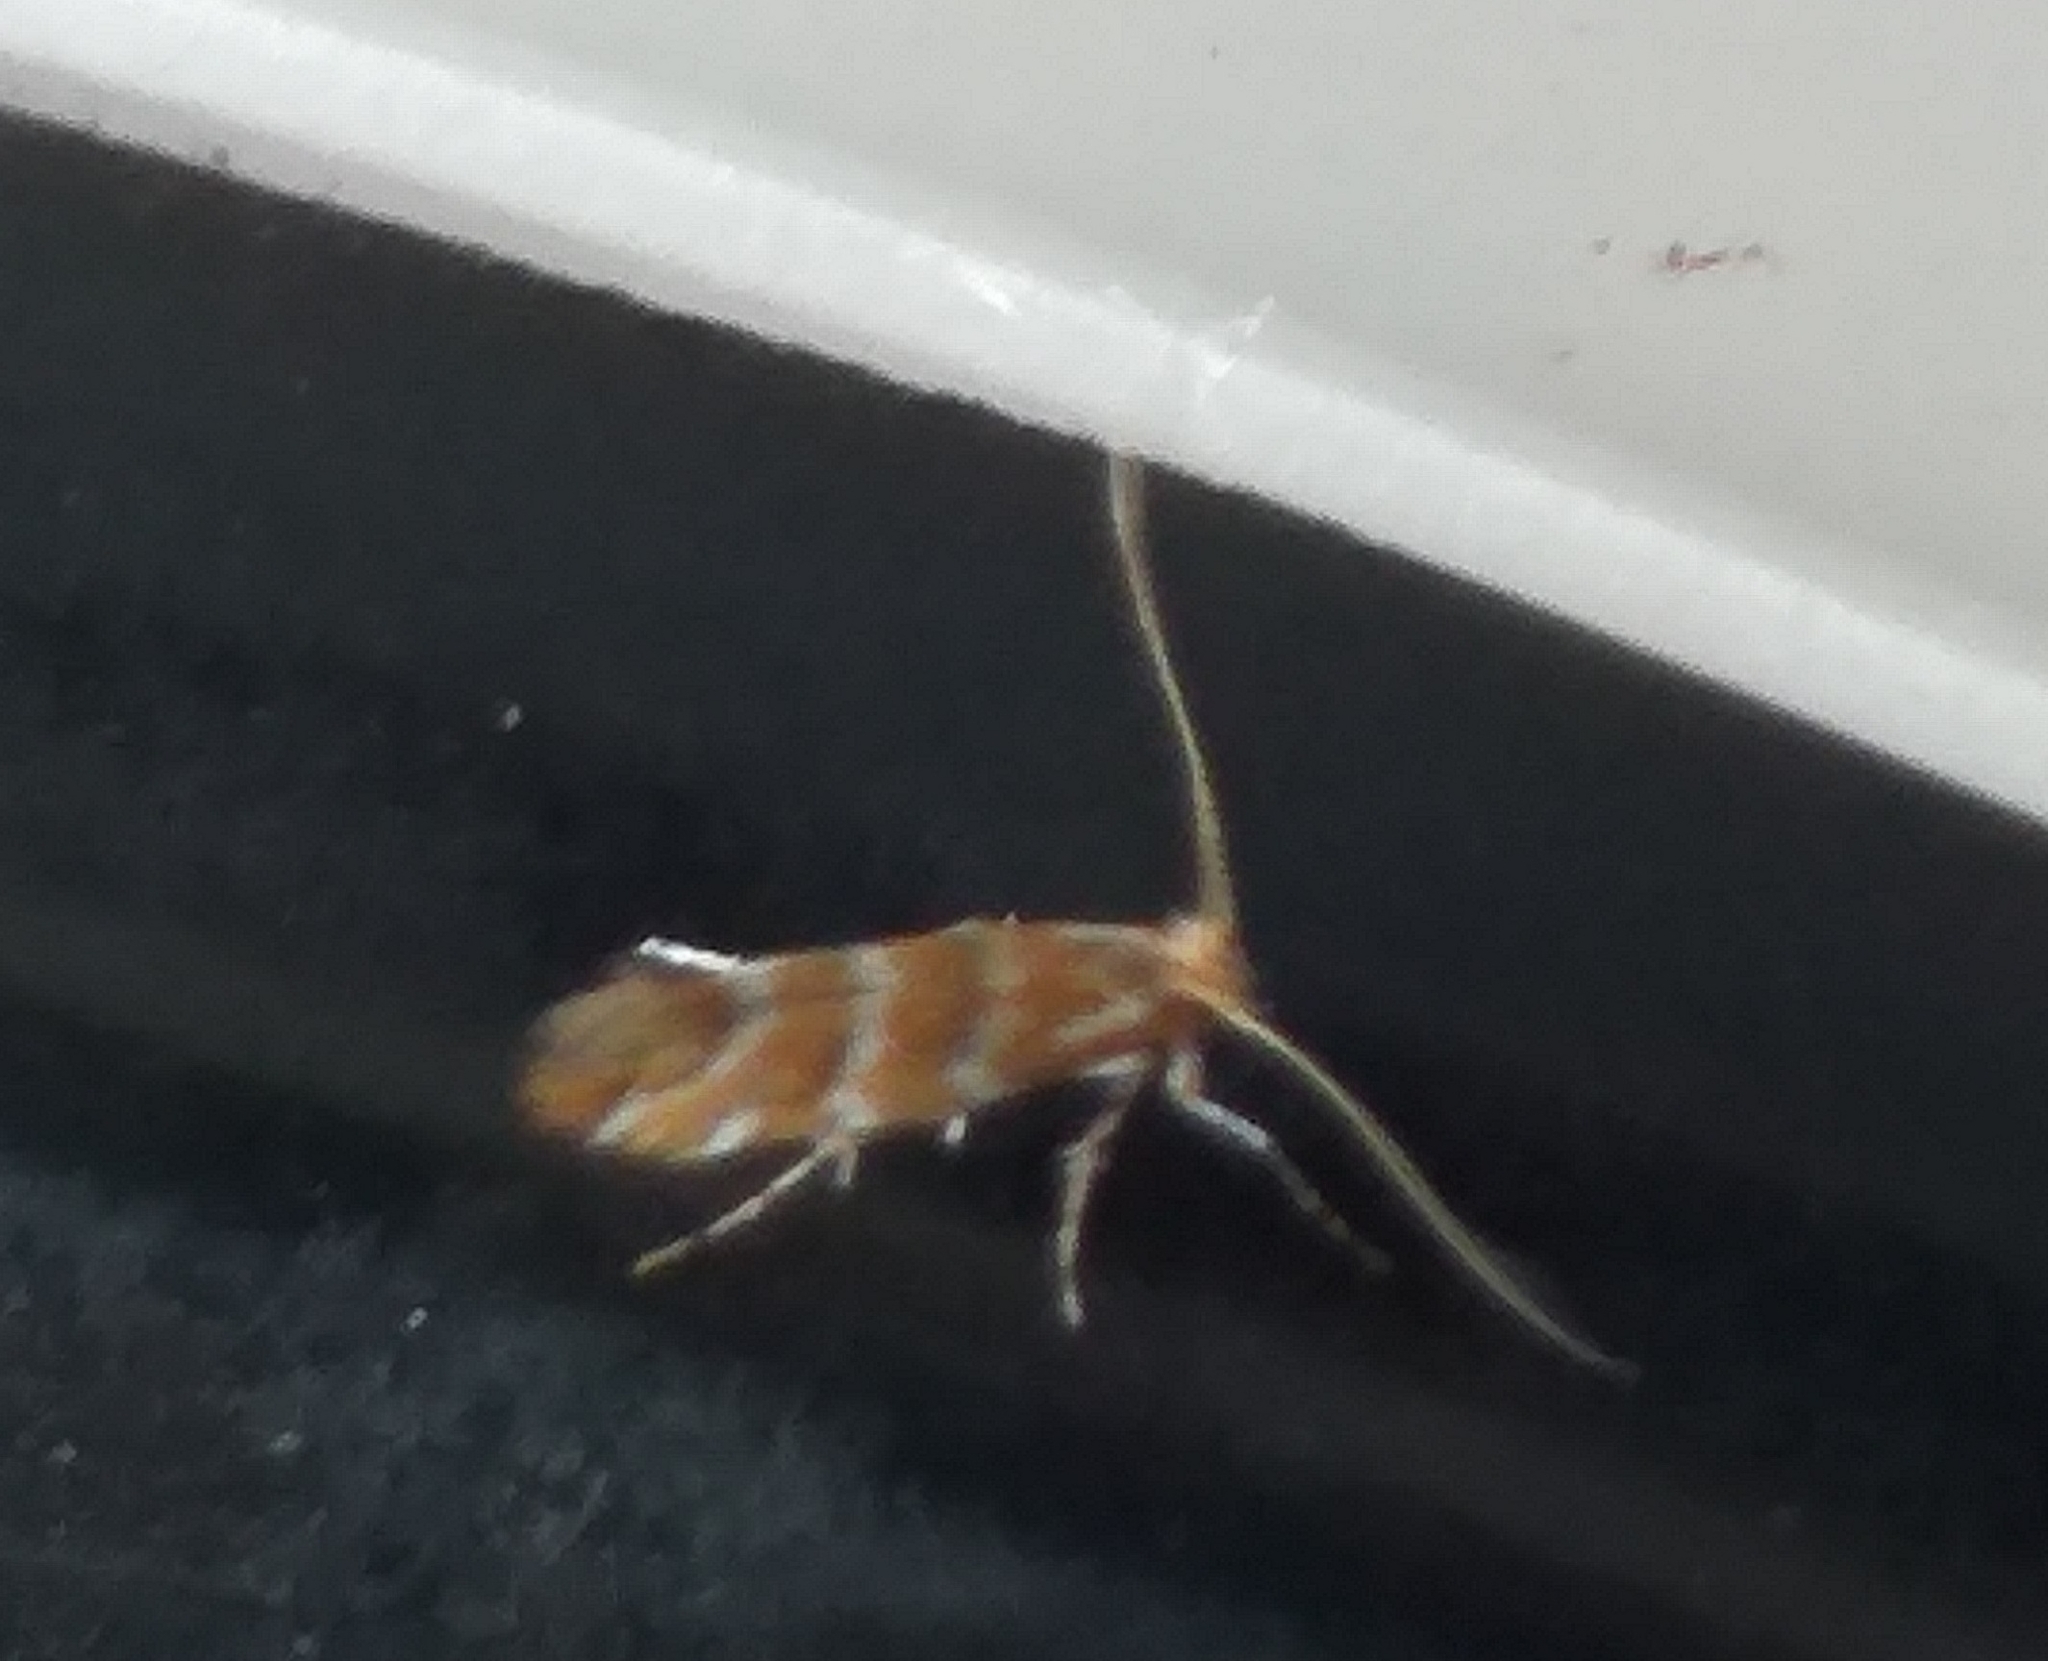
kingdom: Animalia
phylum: Arthropoda
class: Insecta
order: Lepidoptera
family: Gracillariidae
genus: Cameraria
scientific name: Cameraria ohridella
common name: Horse-chestnut leaf-miner
